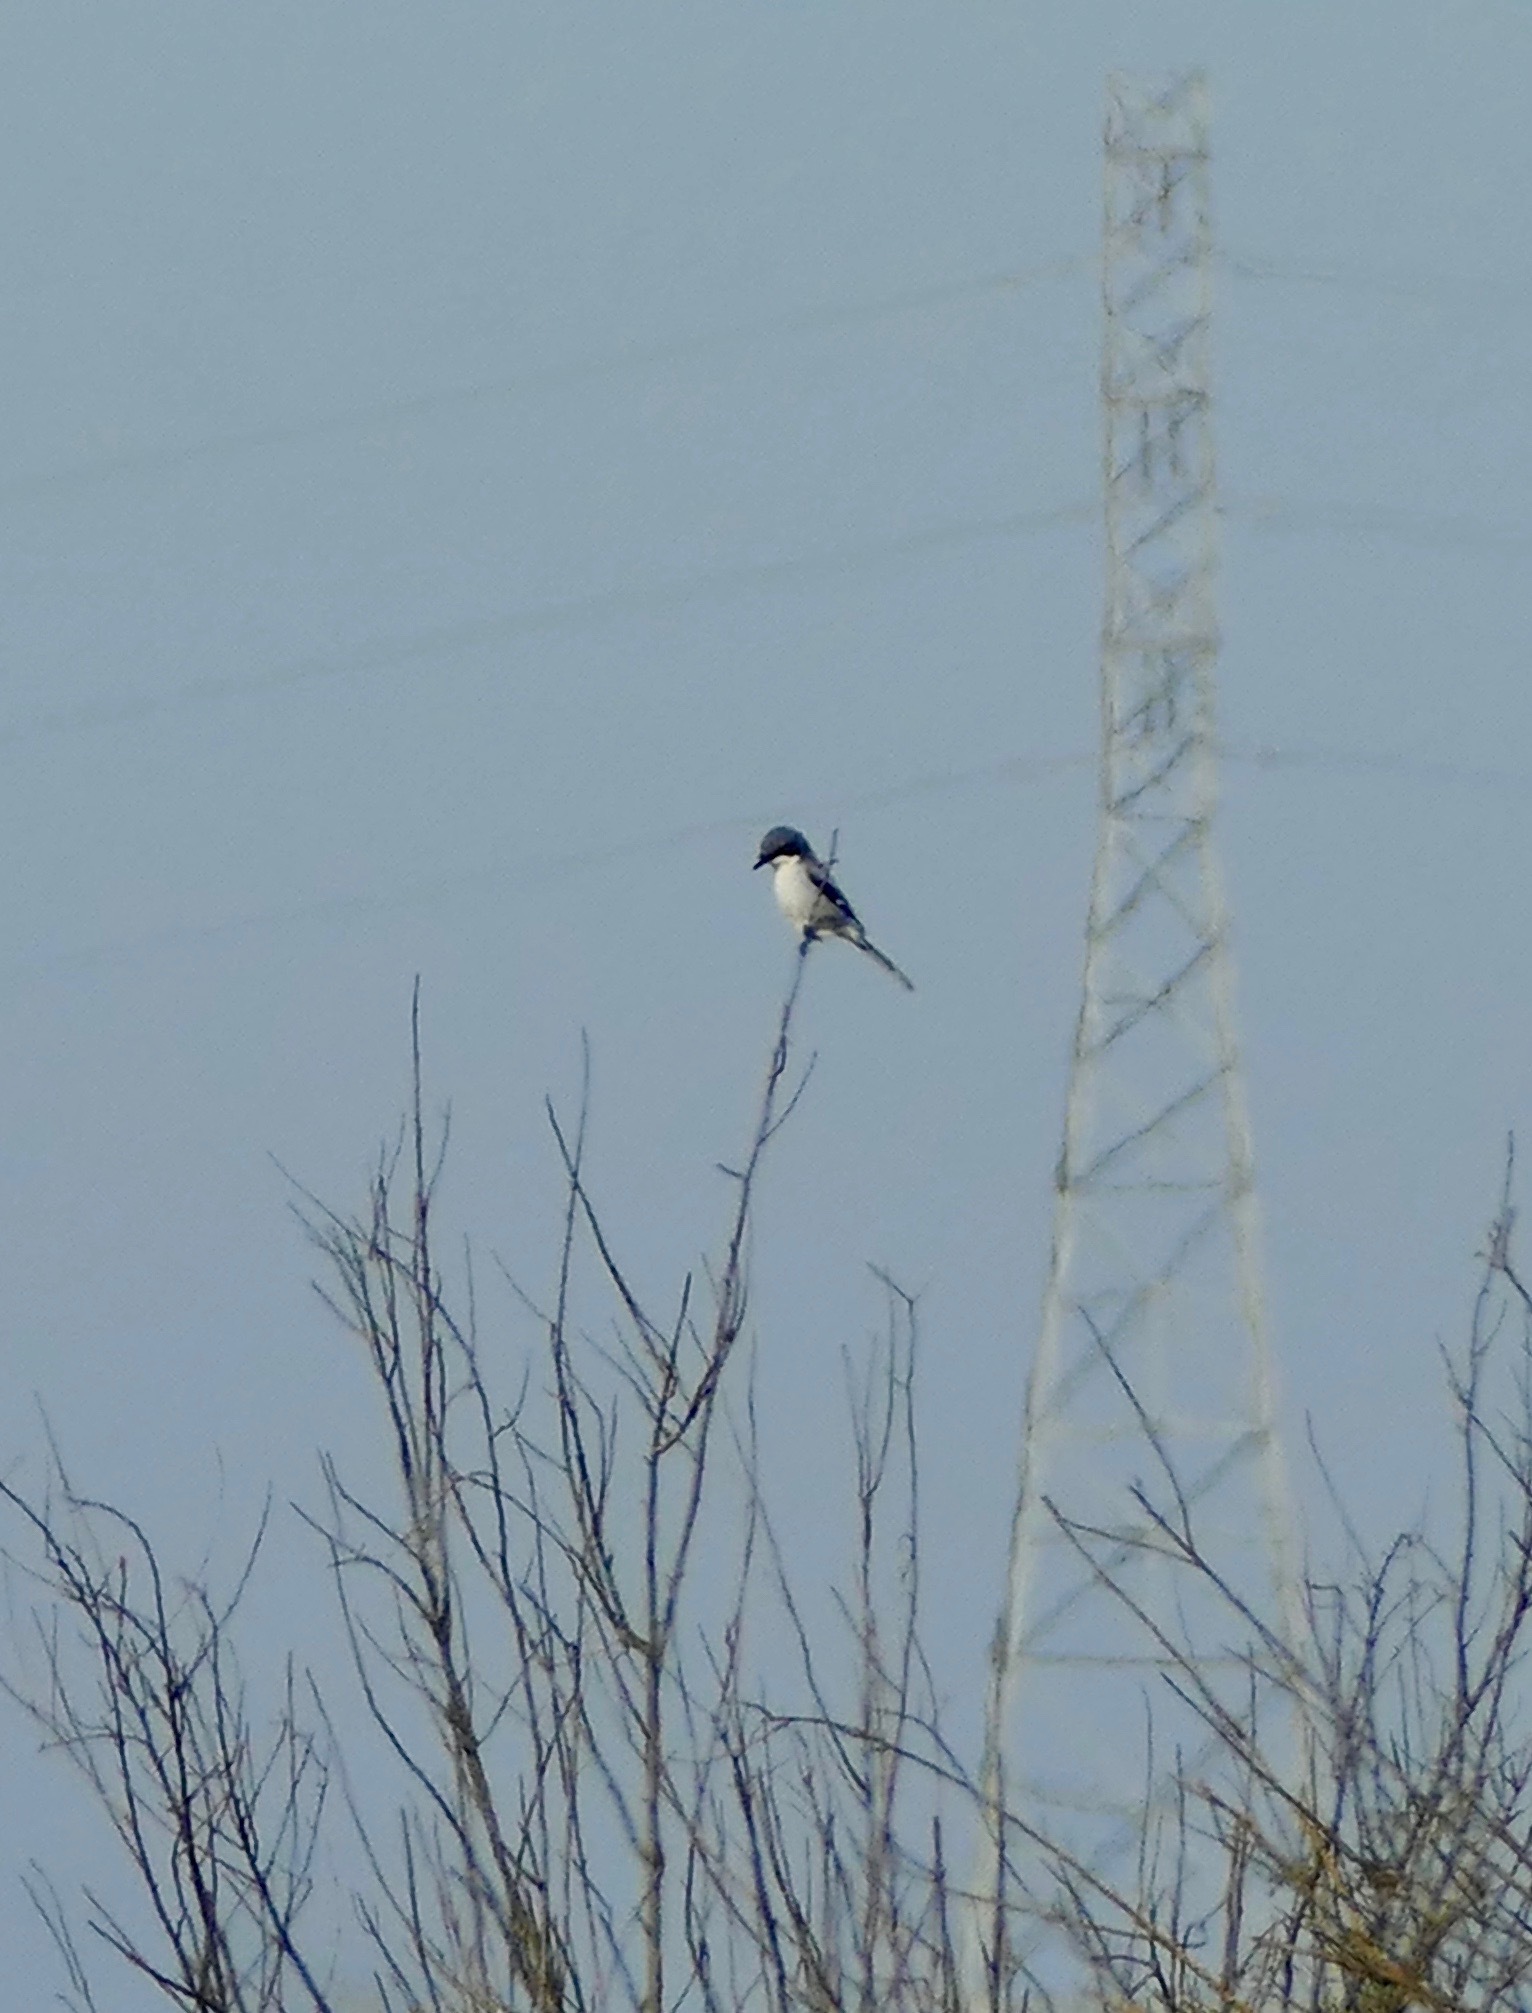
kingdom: Animalia
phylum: Chordata
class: Aves
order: Passeriformes
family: Laniidae
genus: Lanius
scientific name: Lanius ludovicianus
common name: Loggerhead shrike
